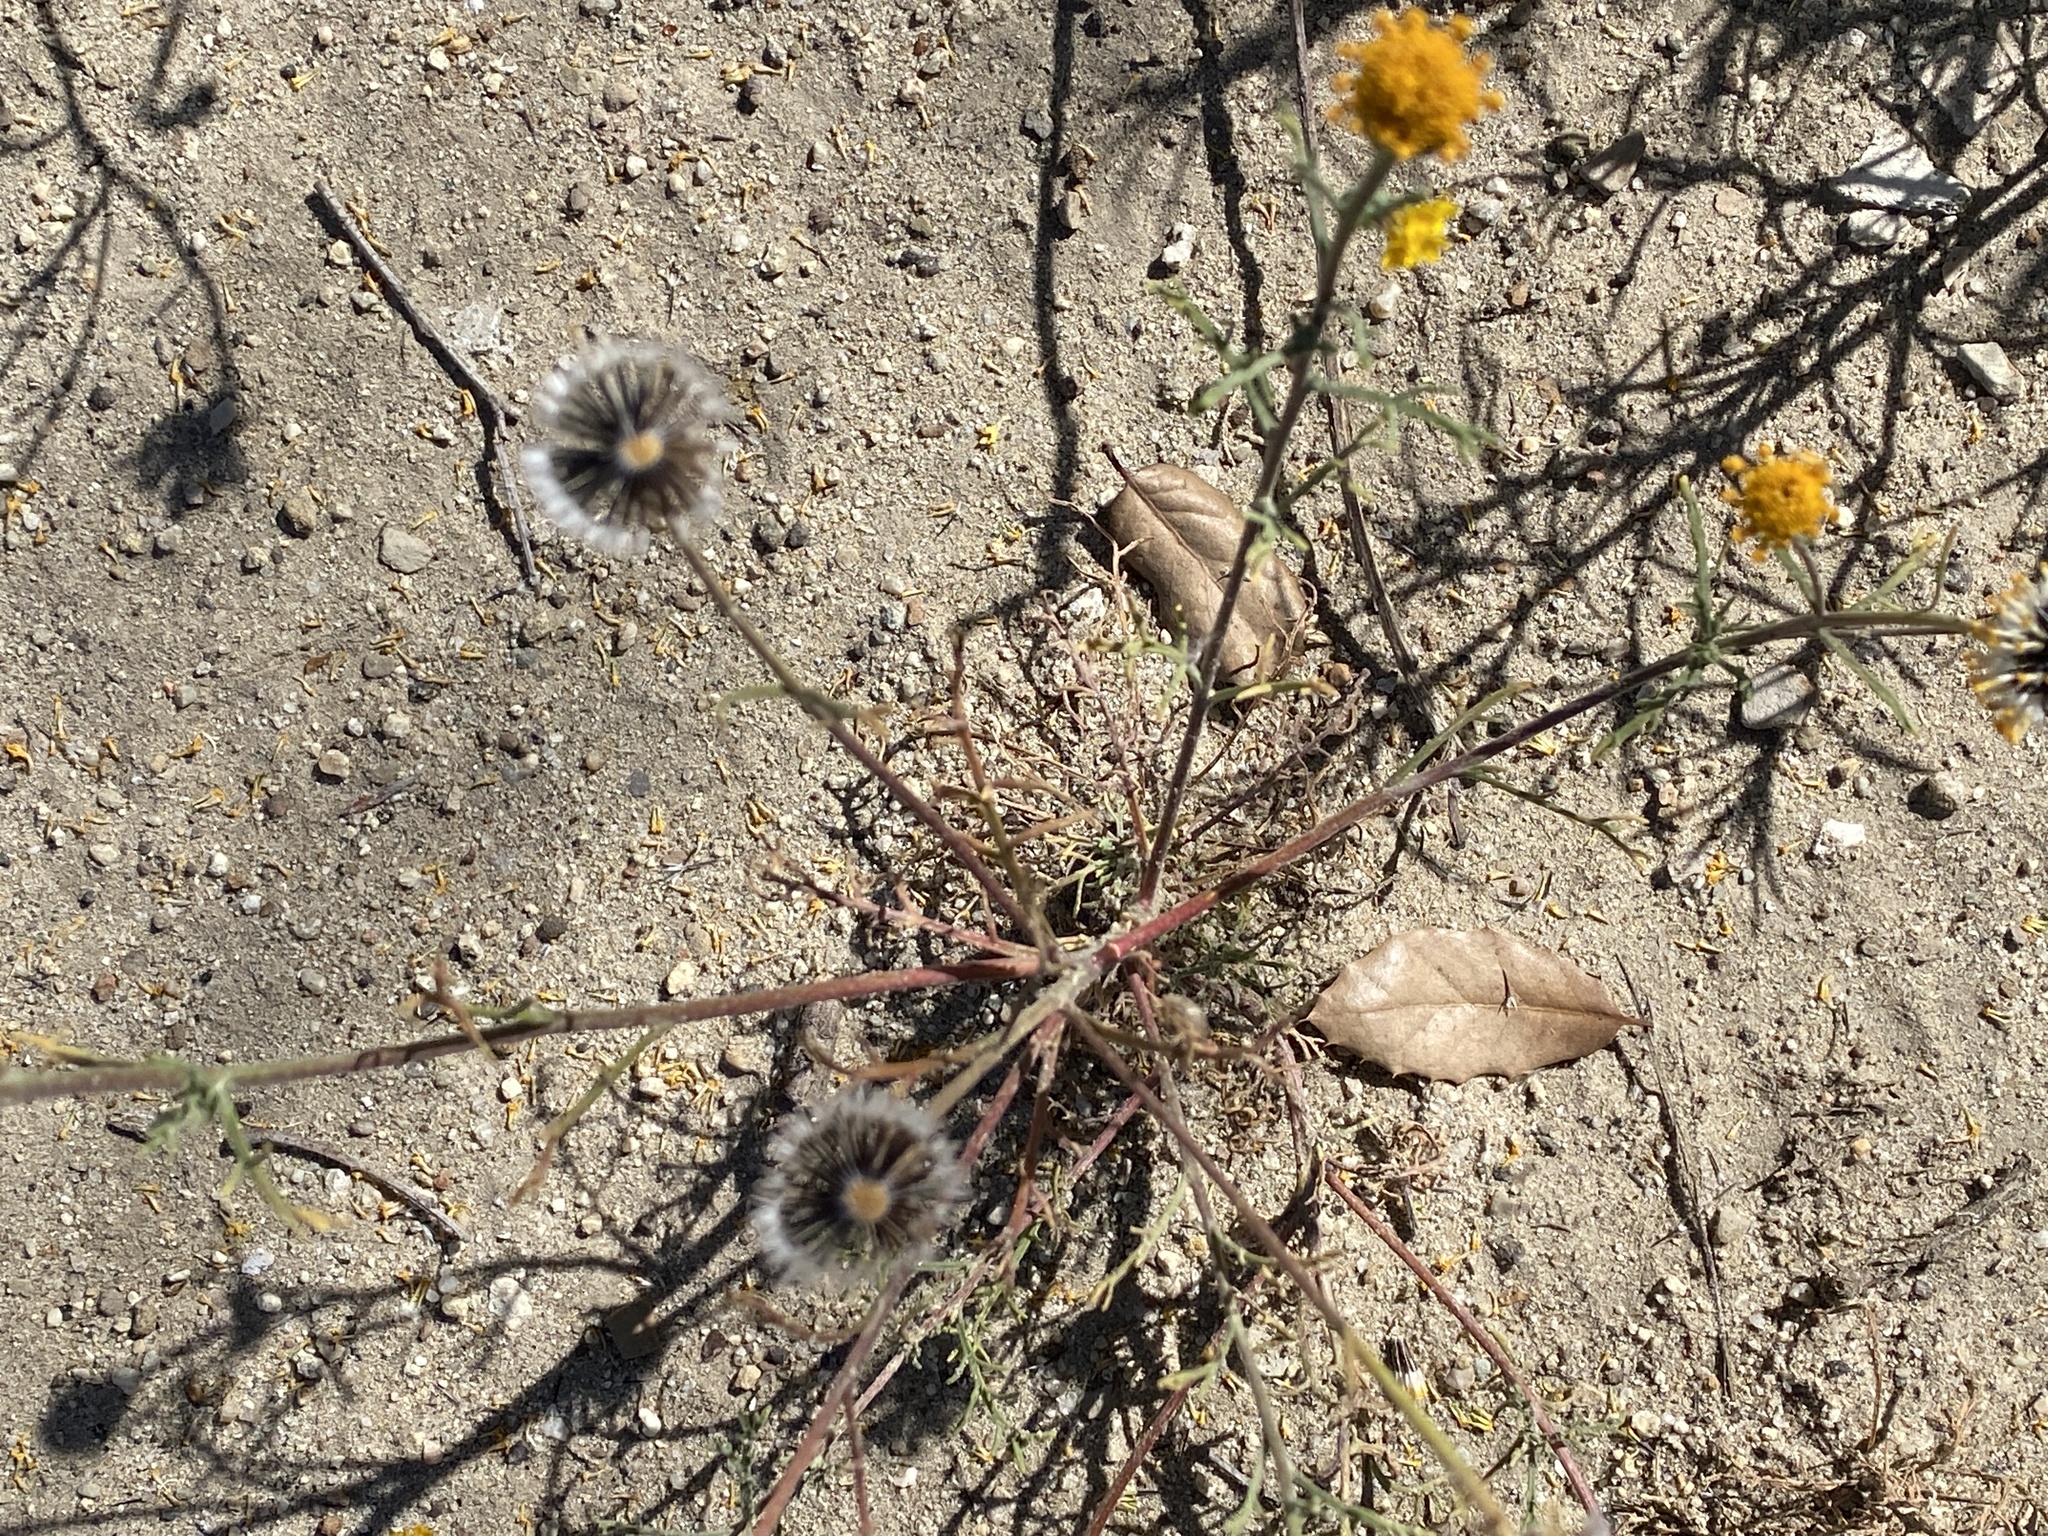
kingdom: Plantae
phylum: Tracheophyta
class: Magnoliopsida
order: Asterales
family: Asteraceae
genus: Chaenactis
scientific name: Chaenactis glabriuscula
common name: Yellow pincushion
